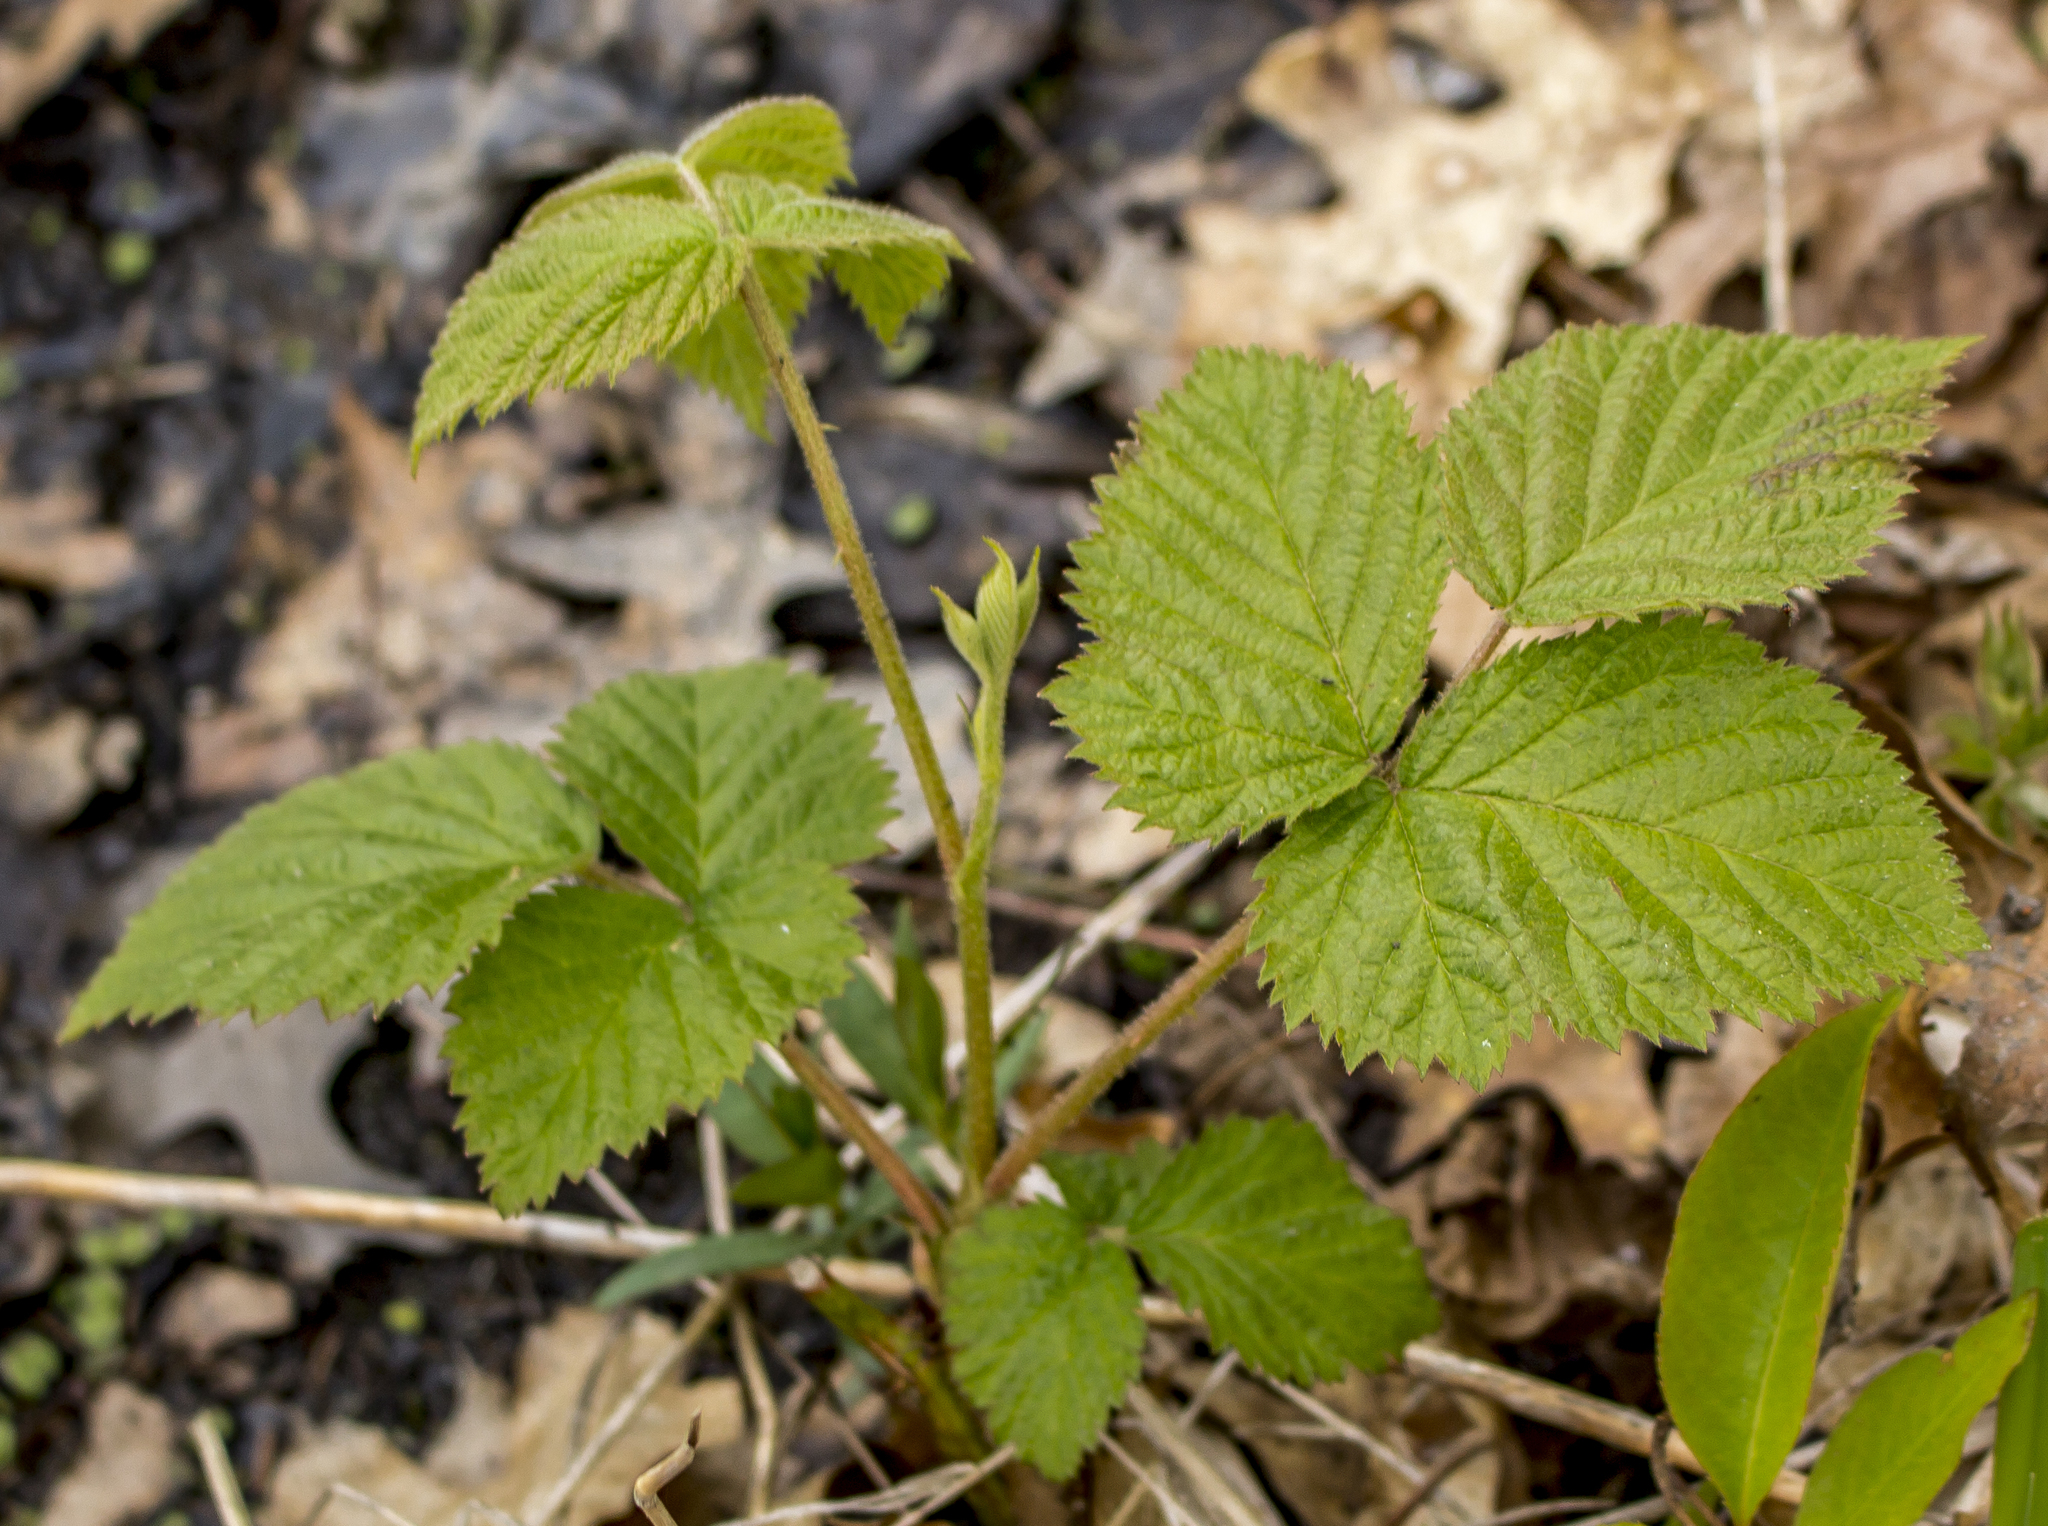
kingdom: Plantae
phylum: Tracheophyta
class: Magnoliopsida
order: Rosales
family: Rosaceae
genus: Rubus
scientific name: Rubus pubescens
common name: Dwarf raspberry
